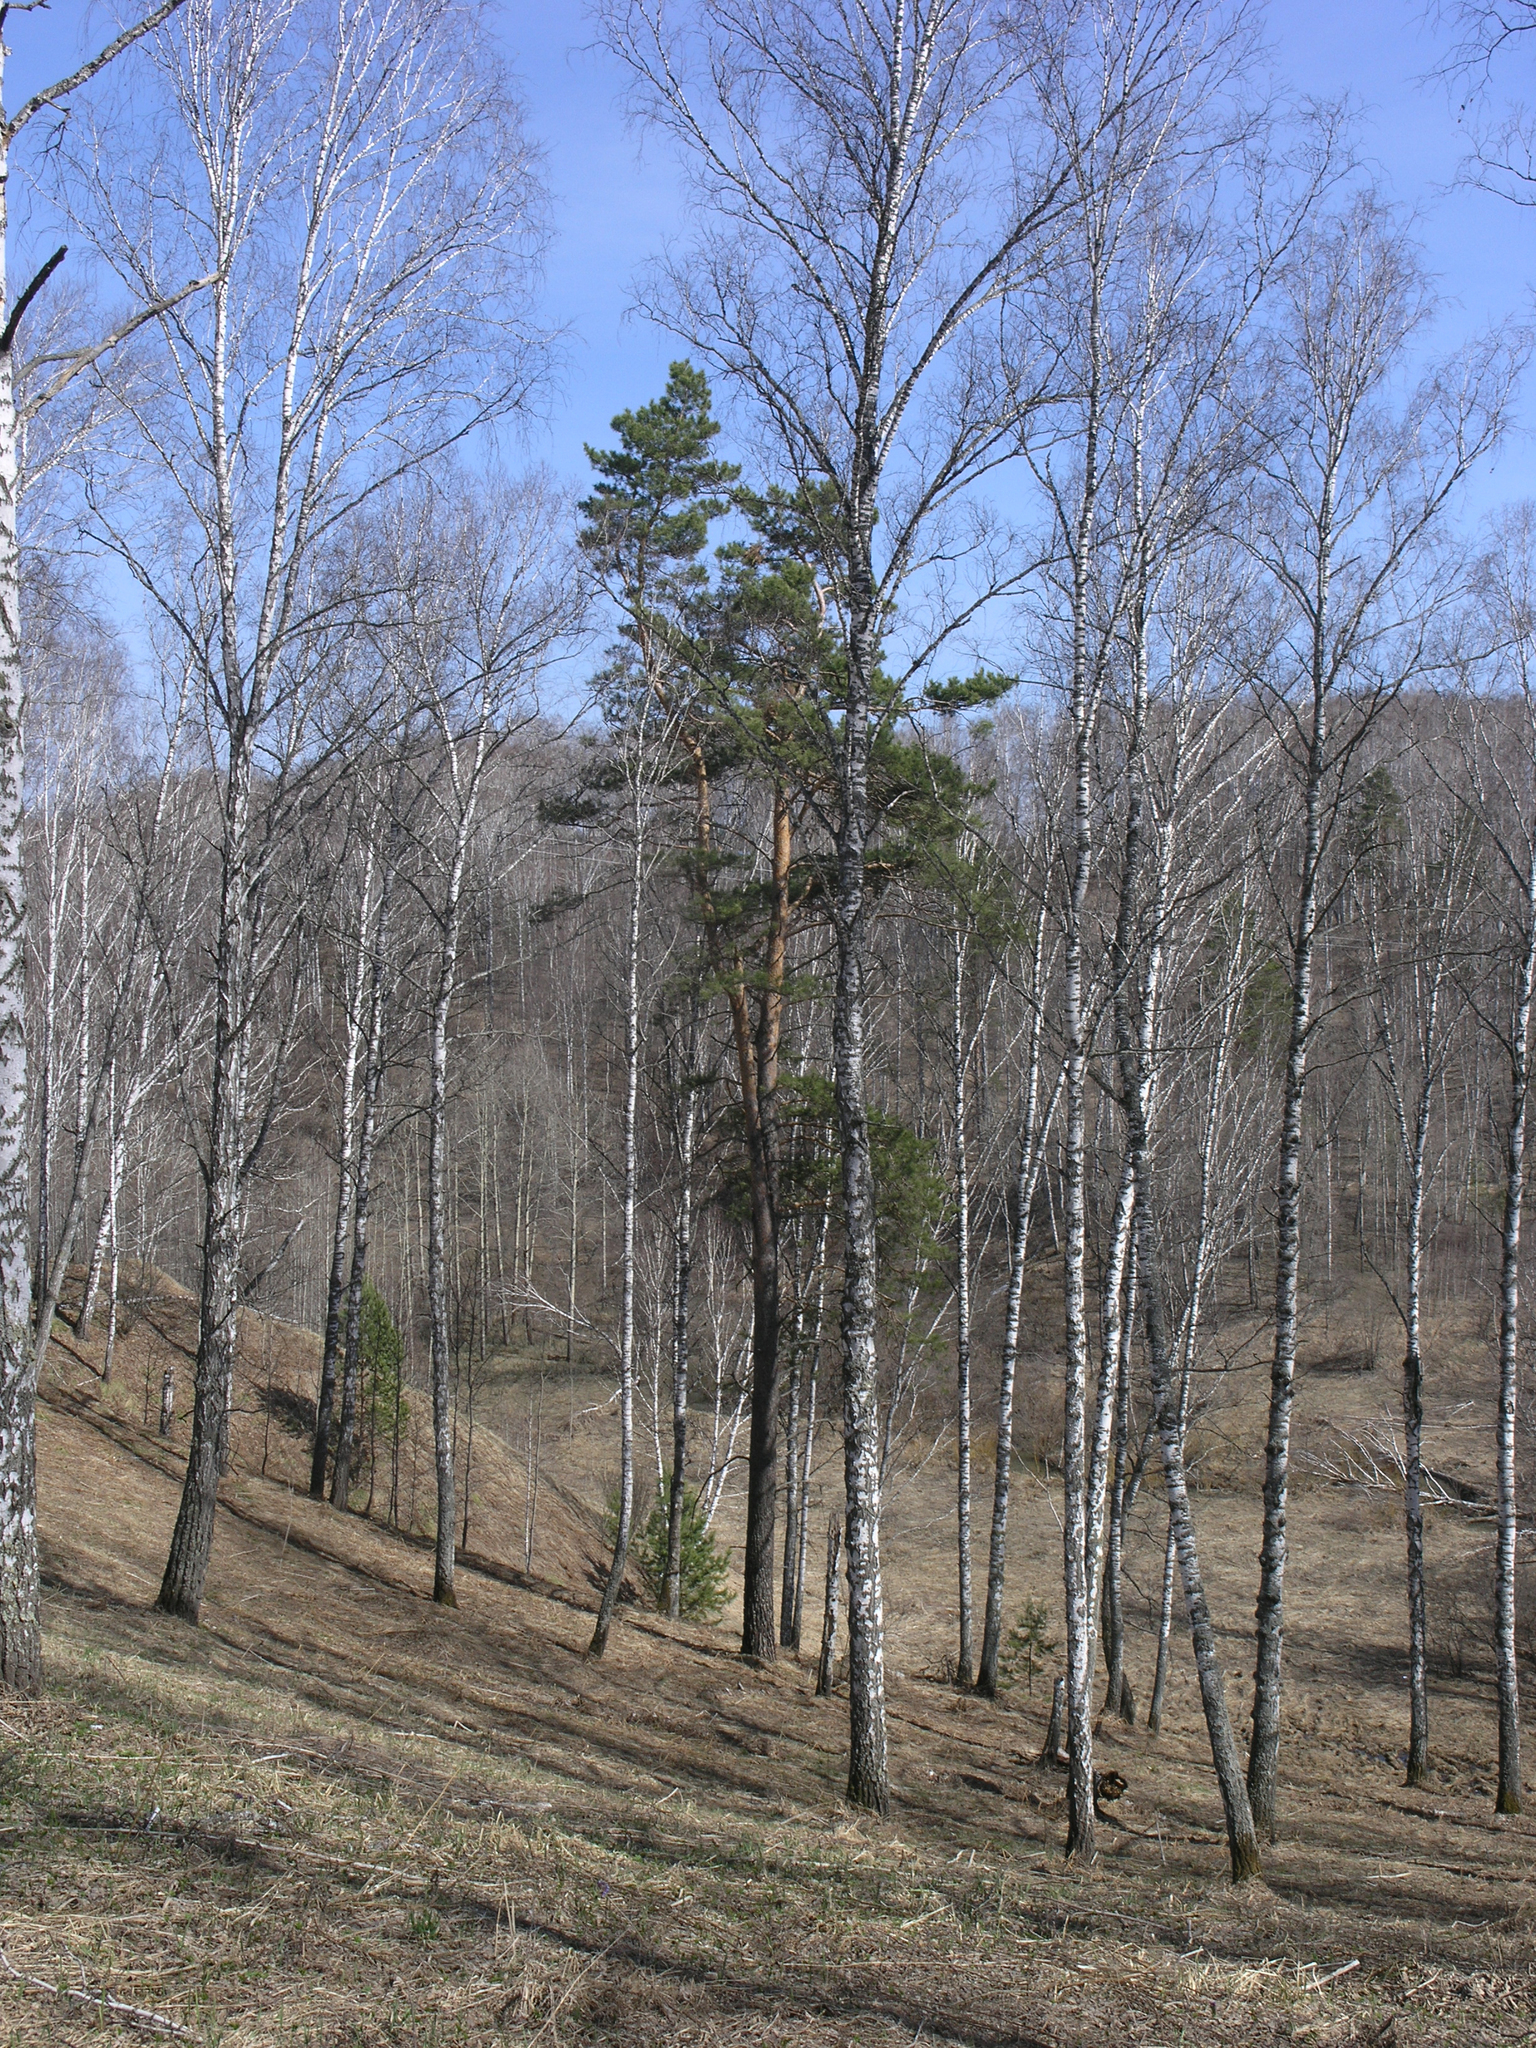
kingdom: Plantae
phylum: Tracheophyta
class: Pinopsida
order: Pinales
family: Pinaceae
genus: Pinus
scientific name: Pinus sylvestris
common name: Scots pine
